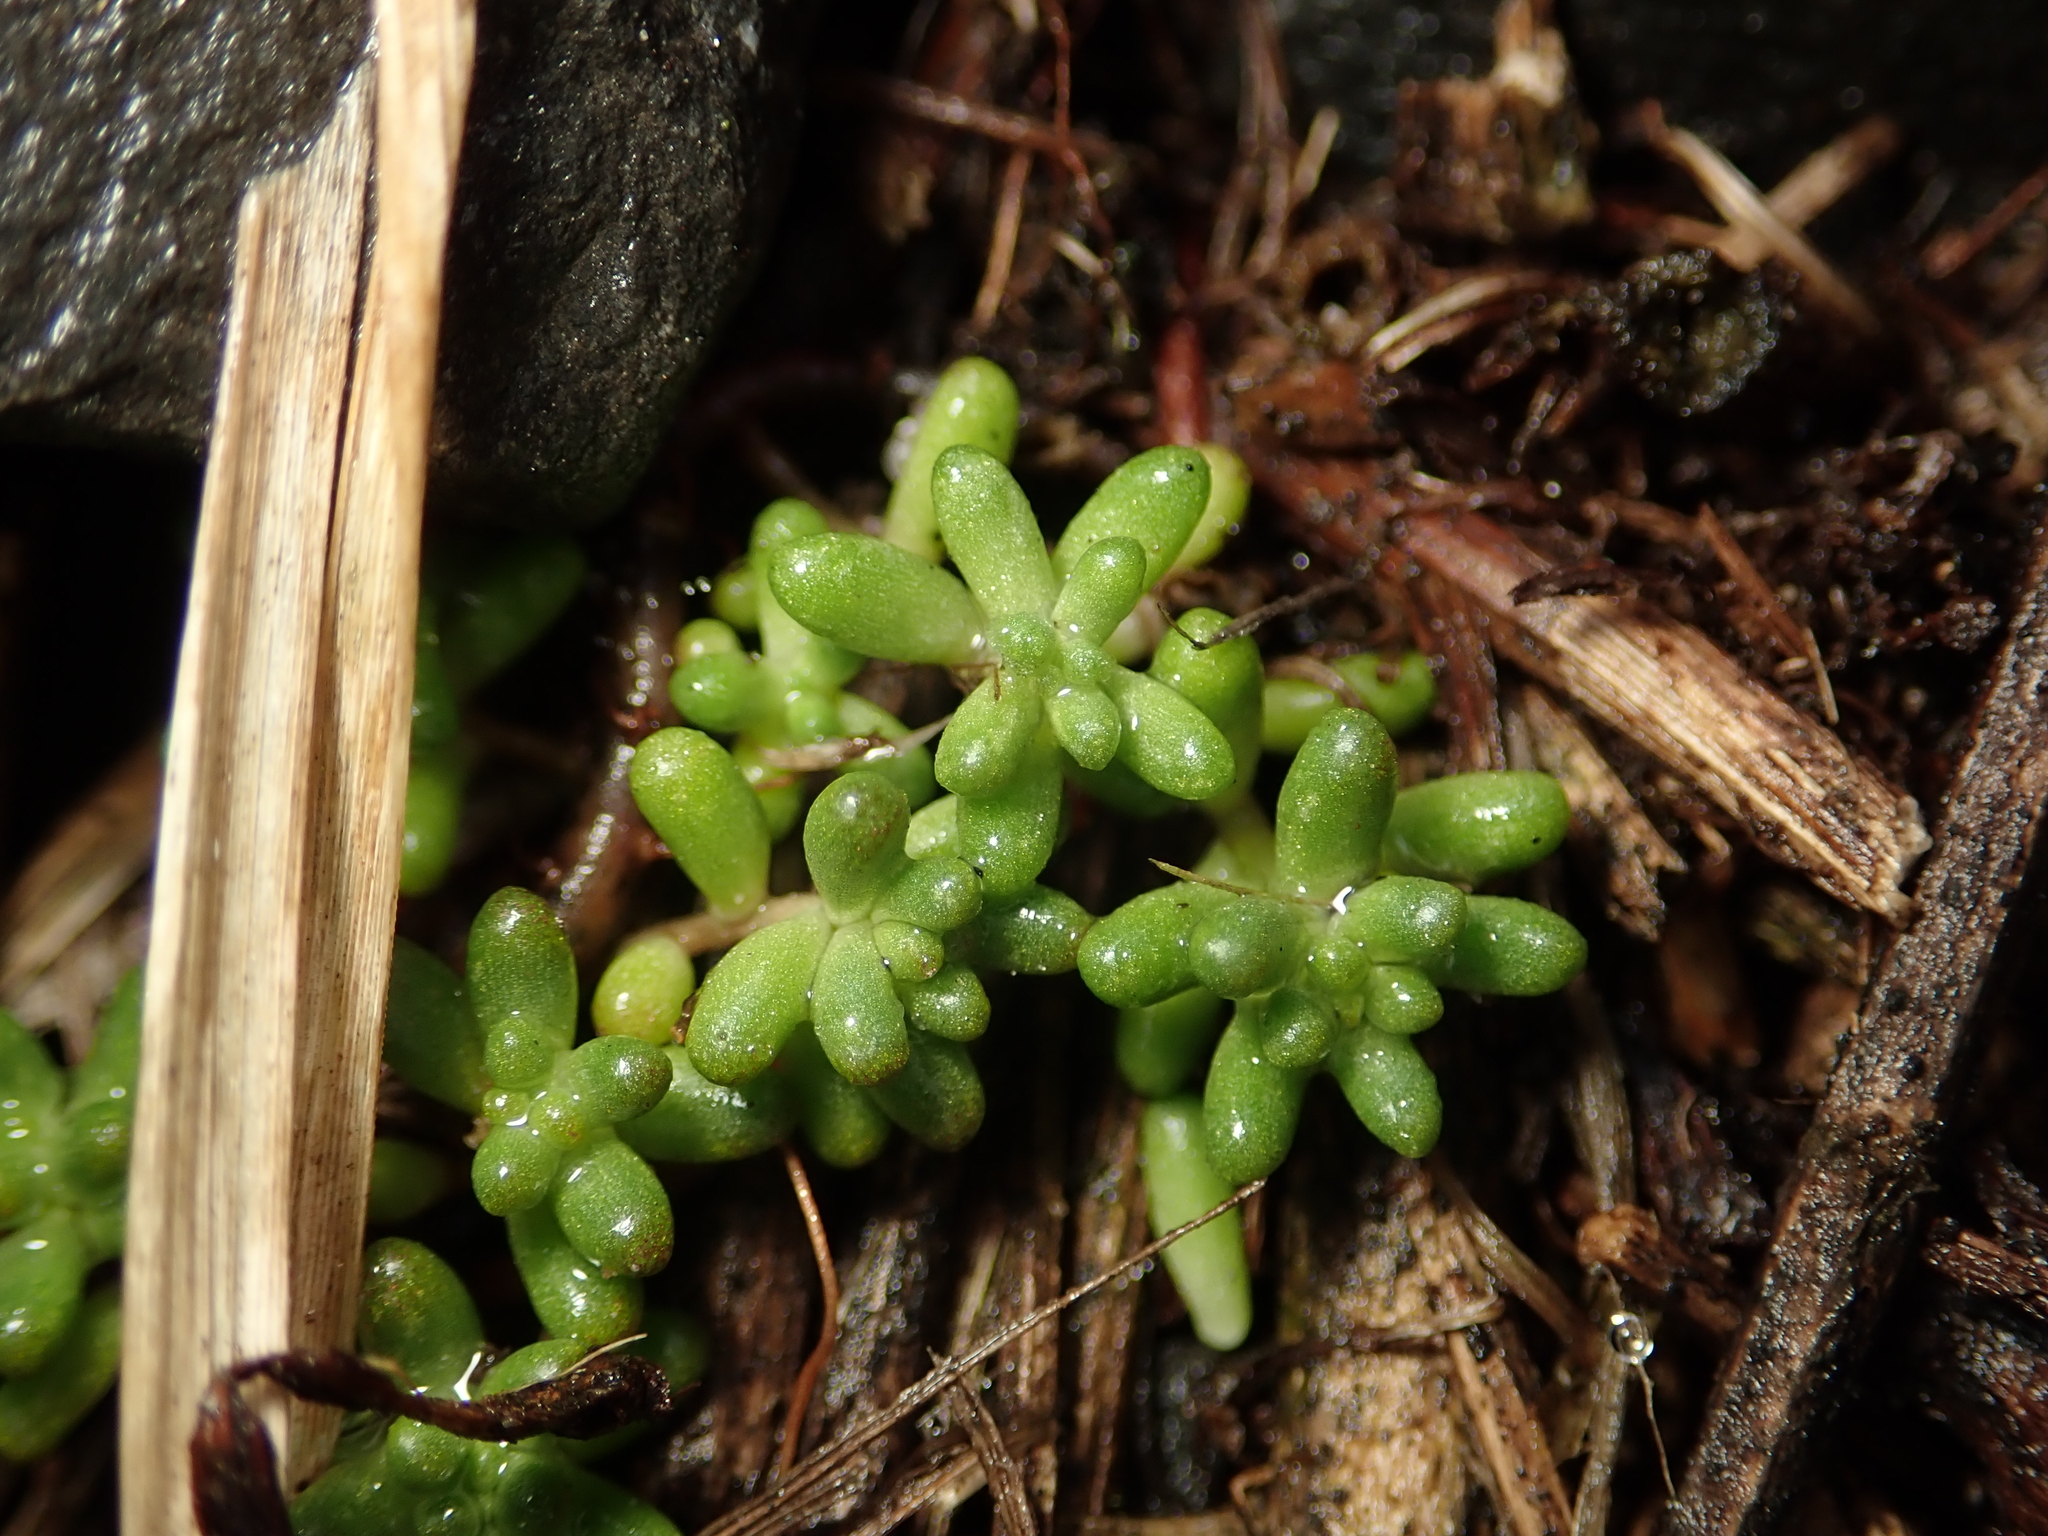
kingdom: Plantae
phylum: Tracheophyta
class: Magnoliopsida
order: Saxifragales
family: Crassulaceae
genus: Sedum
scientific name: Sedum album
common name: White stonecrop
